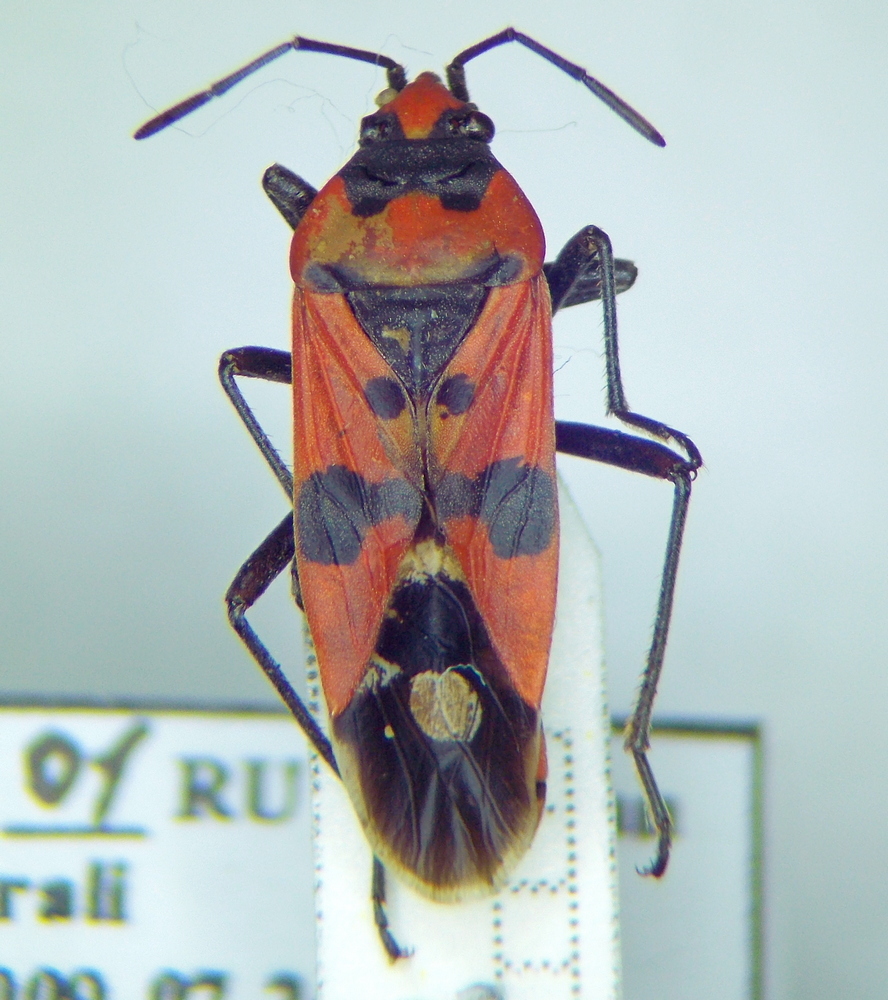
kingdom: Animalia
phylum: Arthropoda
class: Insecta
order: Hemiptera
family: Lygaeidae
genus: Lygaeus
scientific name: Lygaeus simulans
